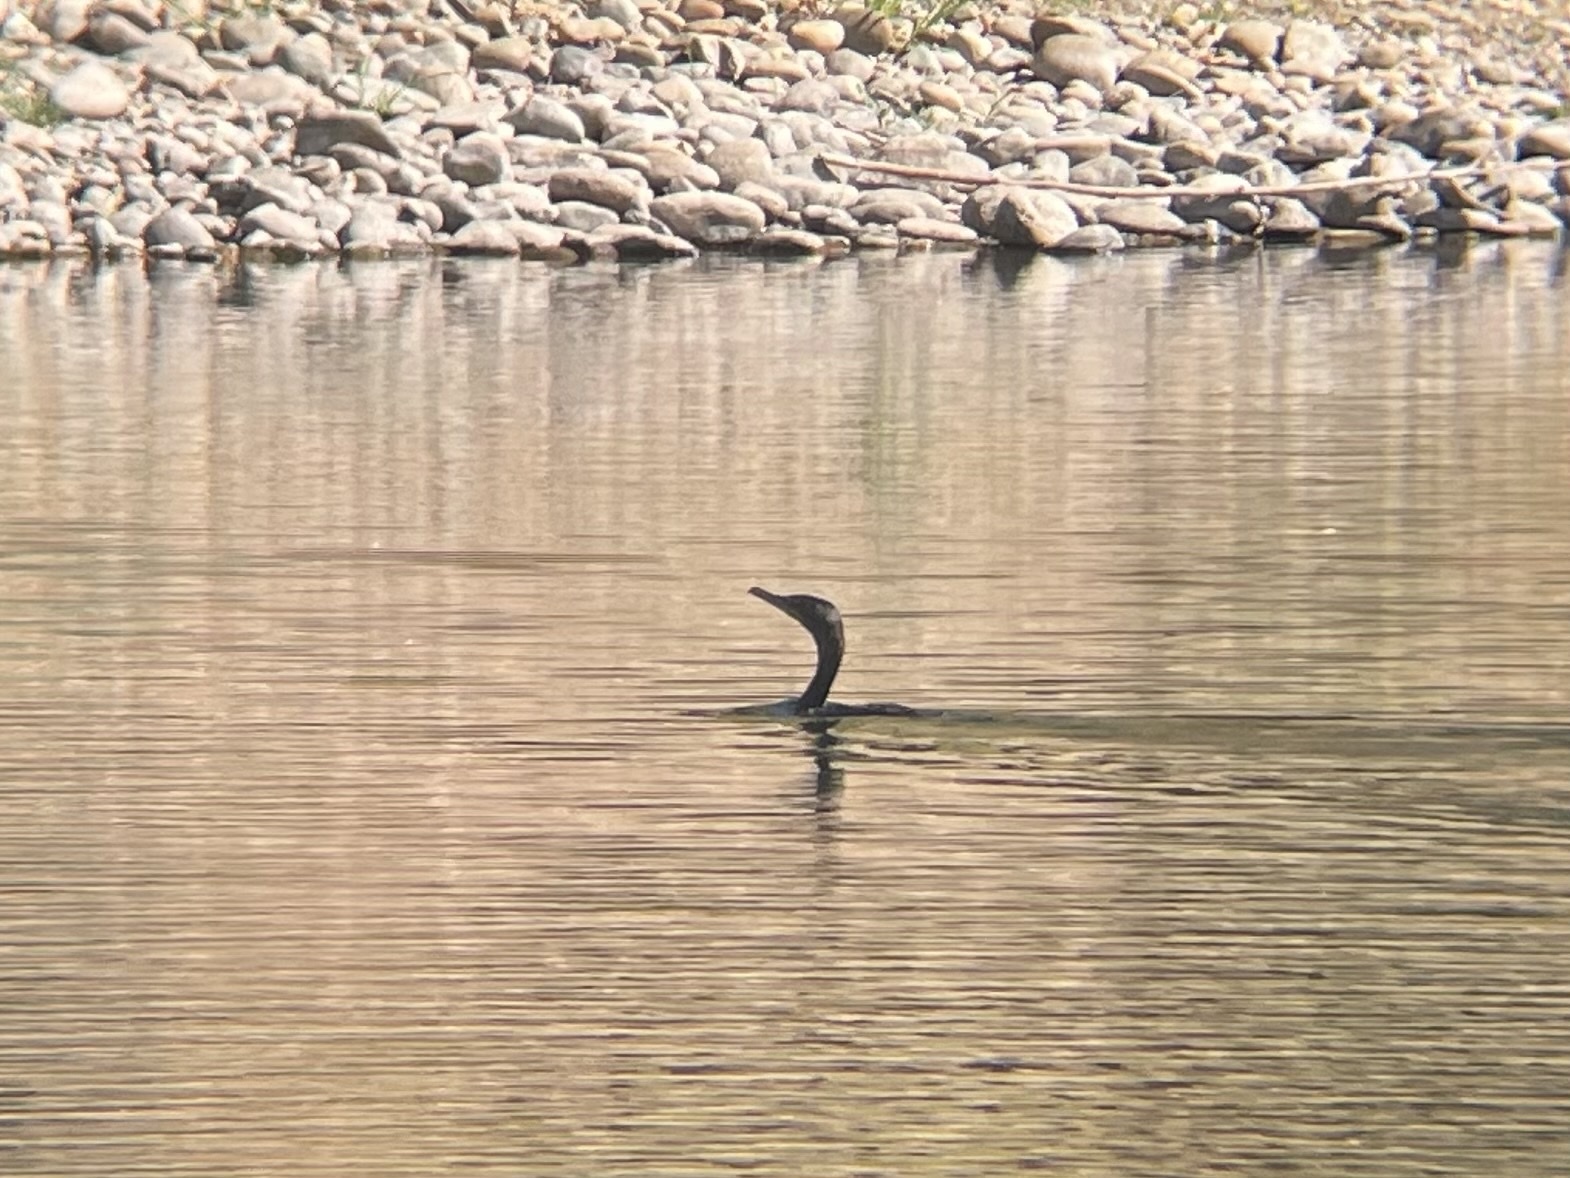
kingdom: Animalia
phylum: Chordata
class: Aves
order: Suliformes
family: Phalacrocoracidae
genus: Phalacrocorax
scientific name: Phalacrocorax auritus
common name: Double-crested cormorant
